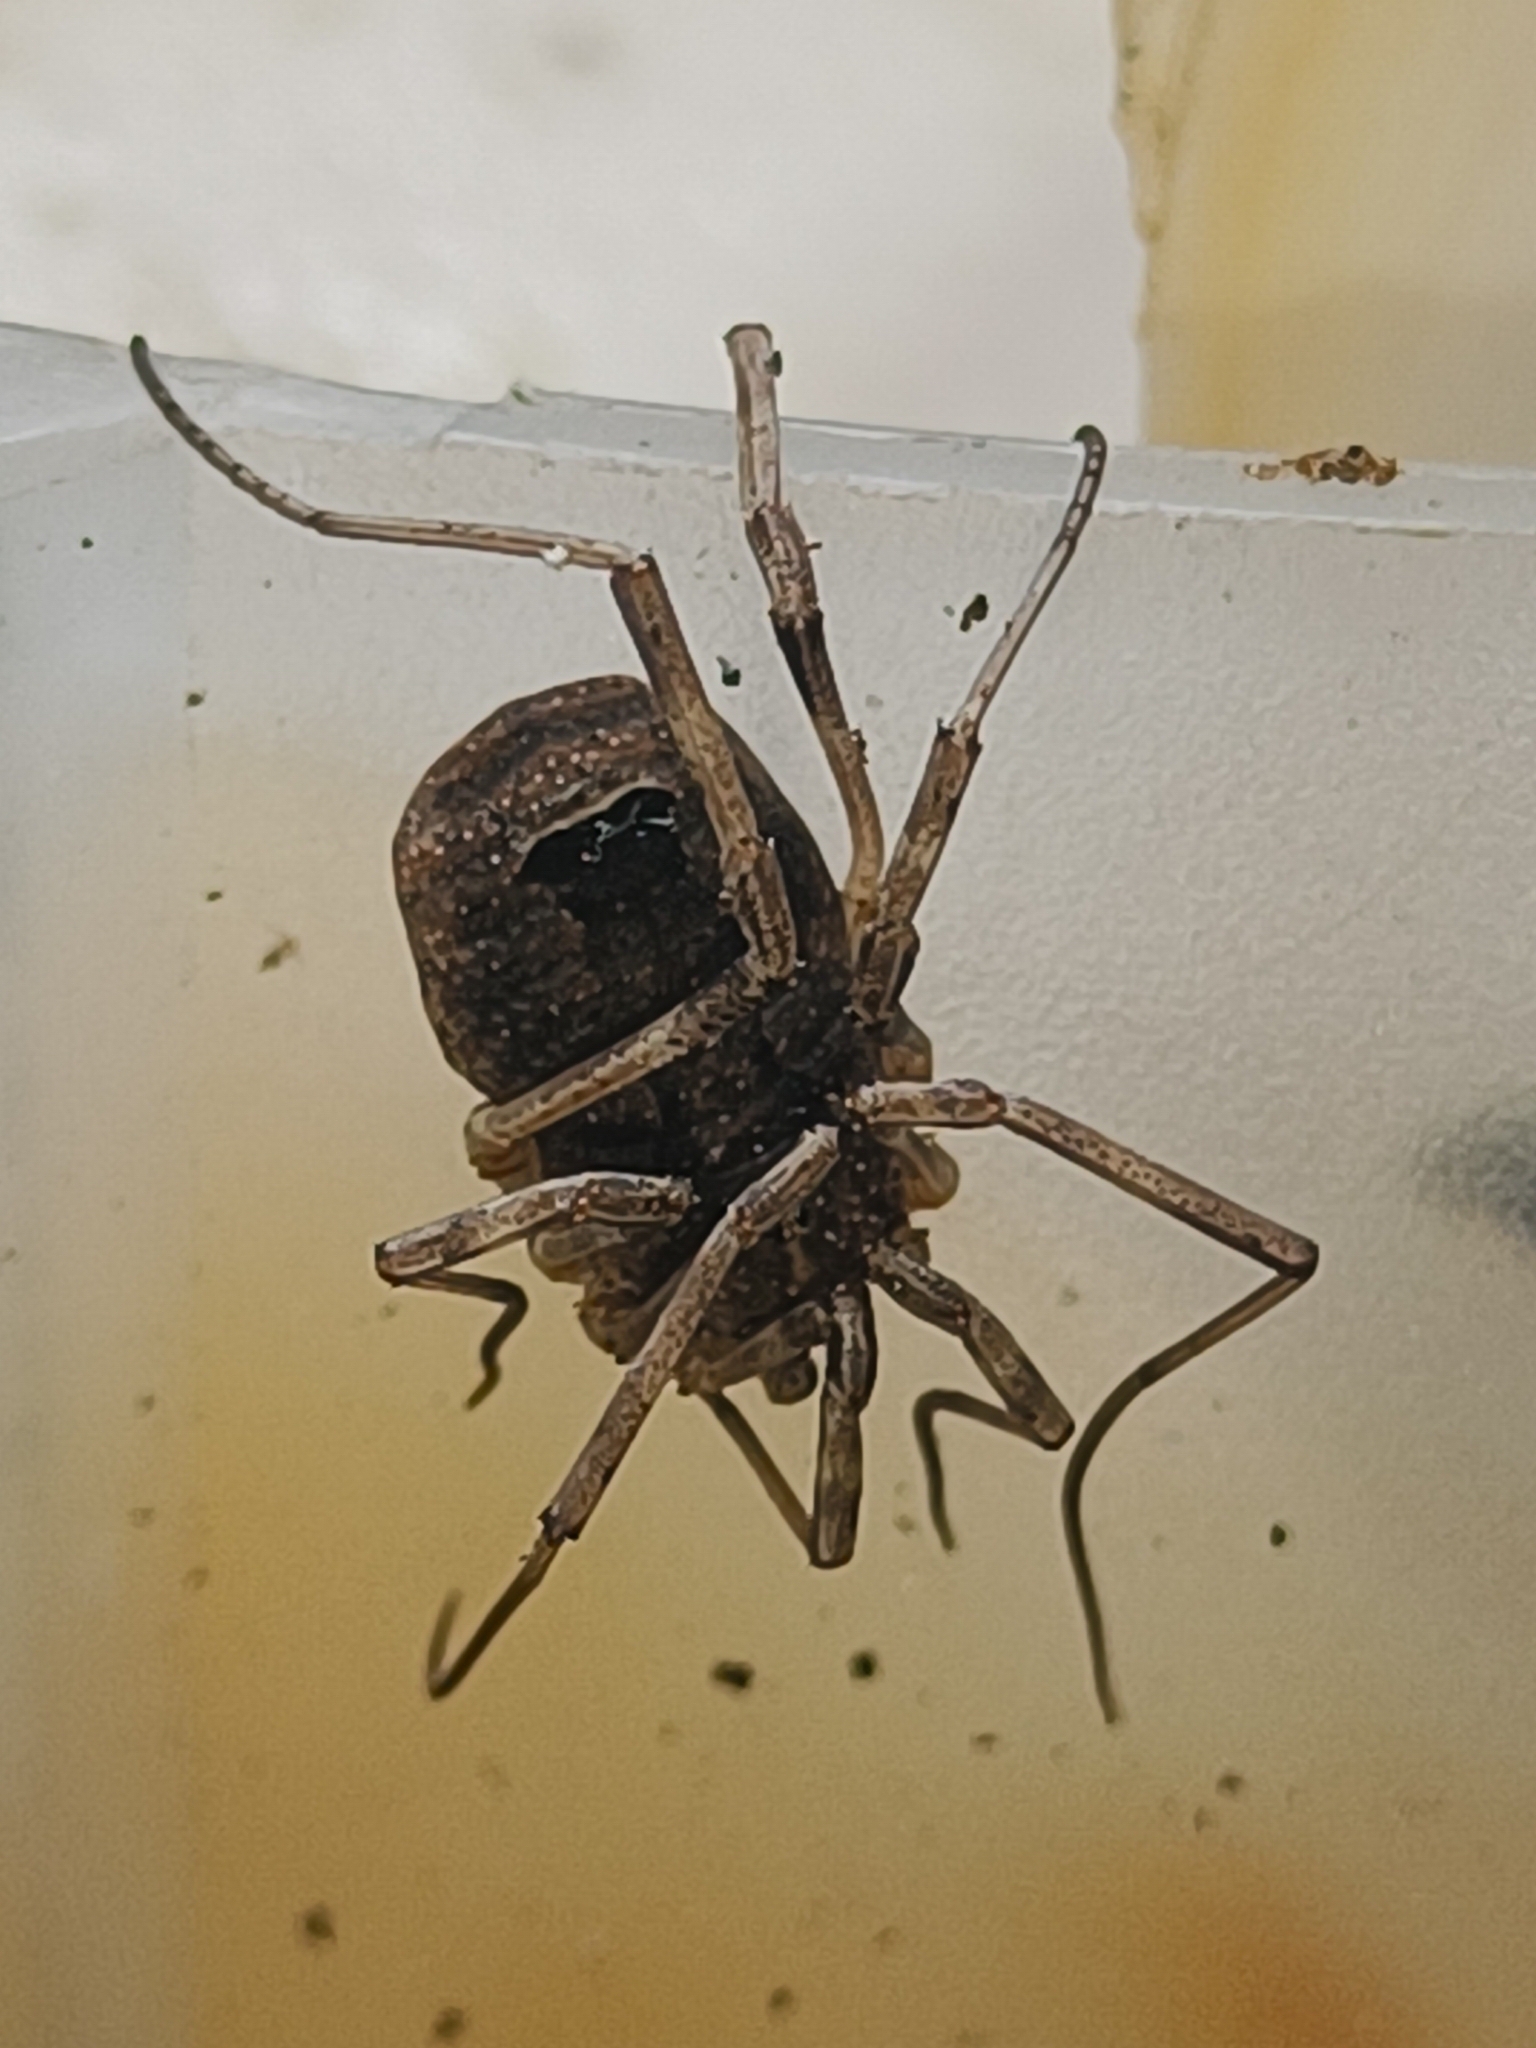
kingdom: Animalia
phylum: Arthropoda
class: Arachnida
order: Opiliones
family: Phalangiidae
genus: Odiellus
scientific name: Odiellus spinosus
